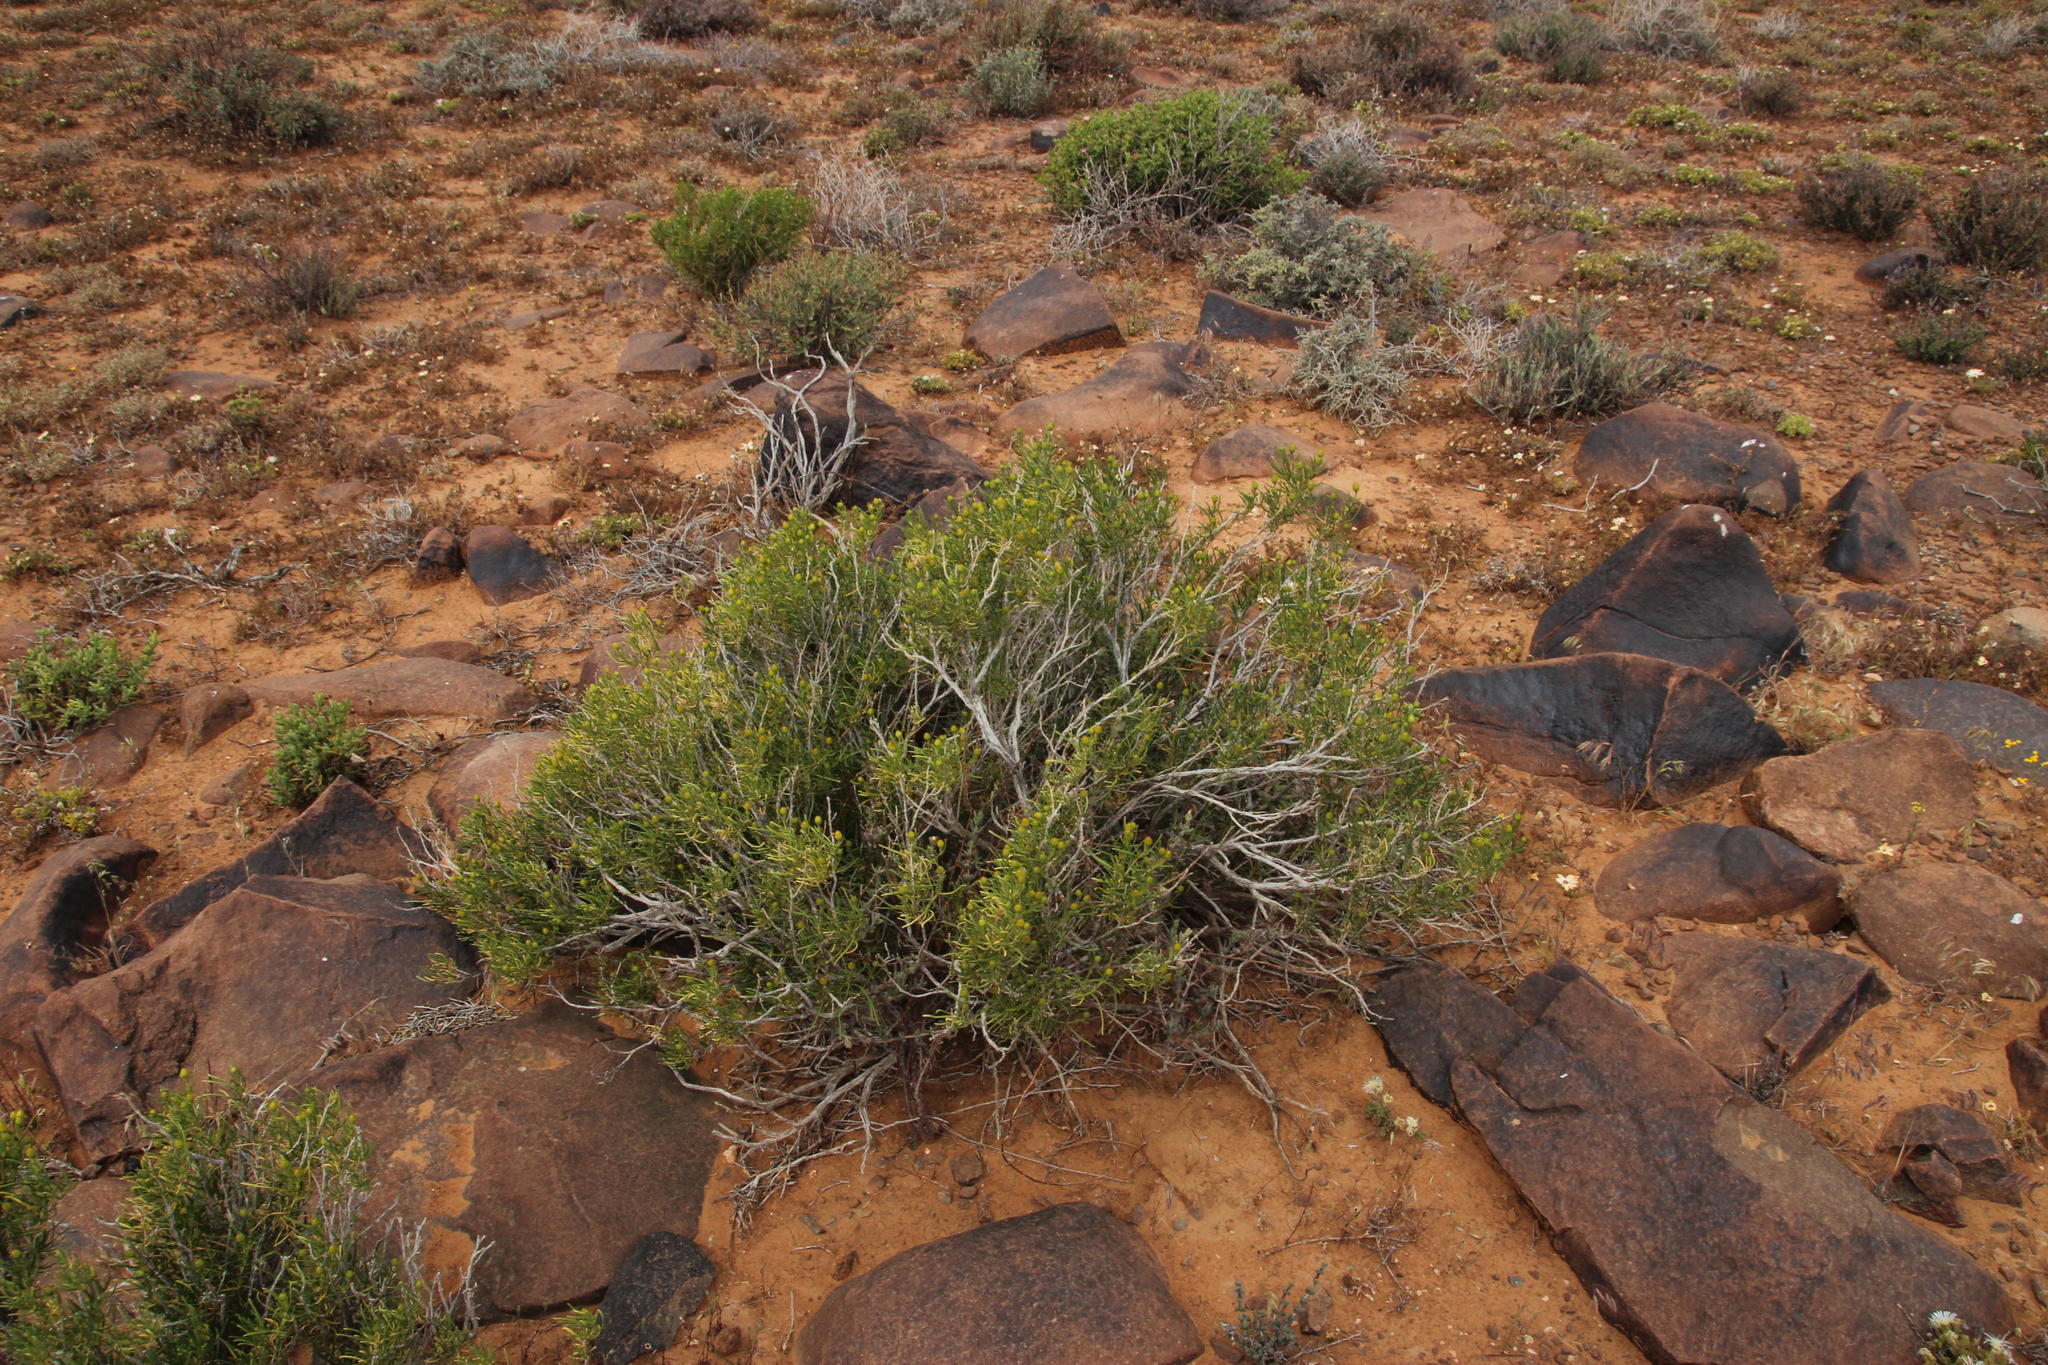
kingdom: Plantae
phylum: Tracheophyta
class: Magnoliopsida
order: Asterales
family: Asteraceae
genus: Pteronia
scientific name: Pteronia pallens
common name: Scholtzbush
